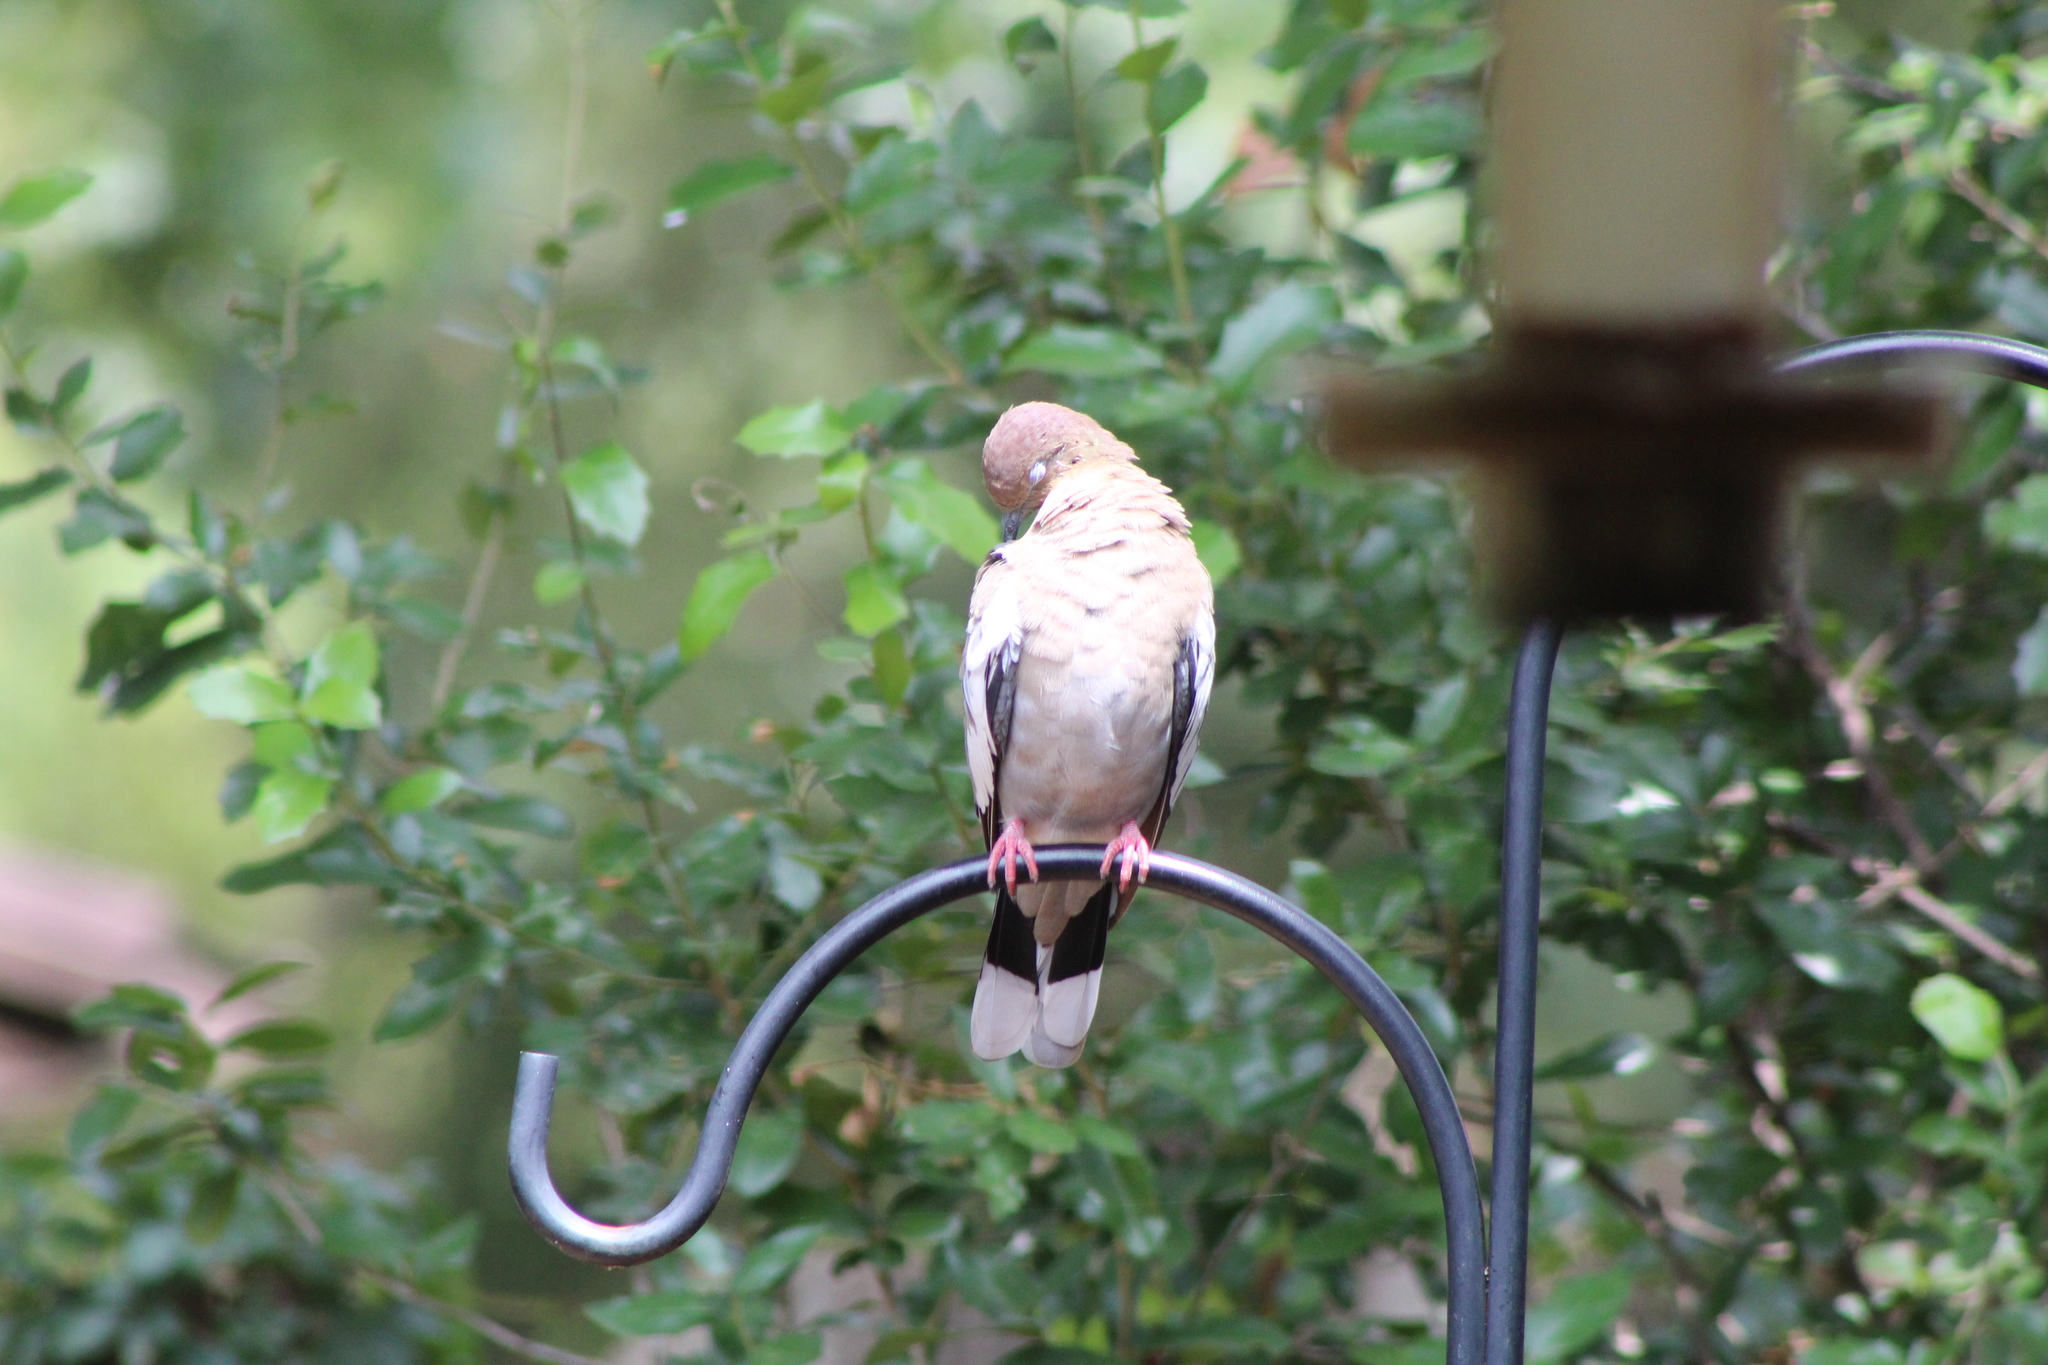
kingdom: Animalia
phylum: Chordata
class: Aves
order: Columbiformes
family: Columbidae
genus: Zenaida
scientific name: Zenaida asiatica
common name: White-winged dove
